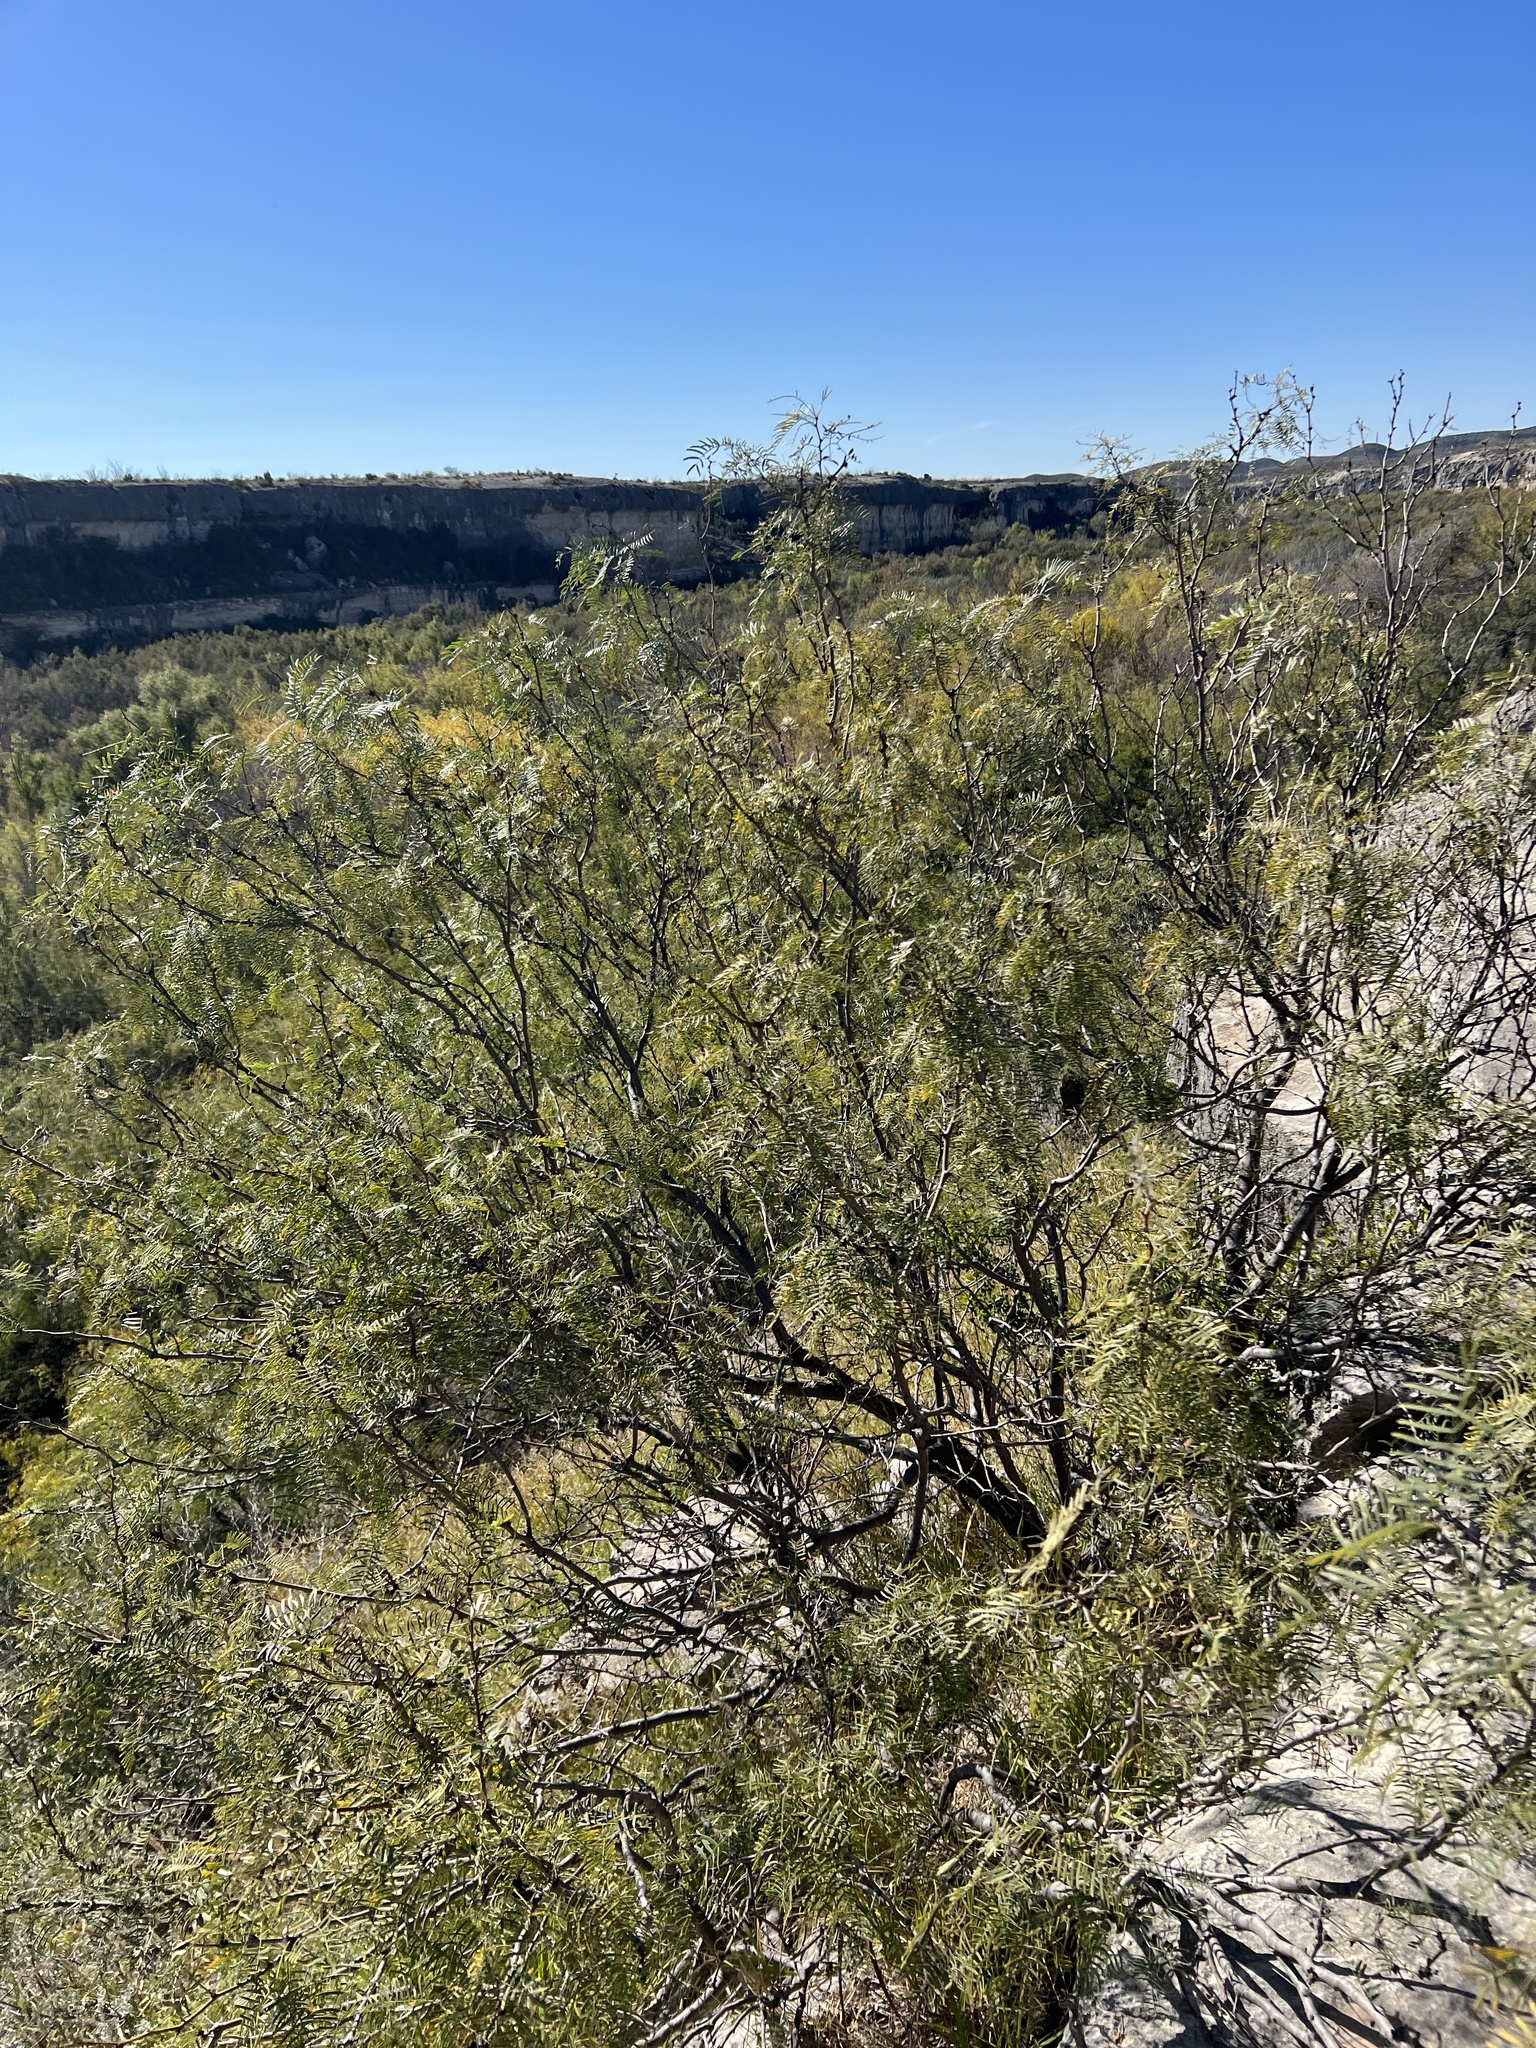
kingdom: Plantae
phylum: Tracheophyta
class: Magnoliopsida
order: Fabales
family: Fabaceae
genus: Prosopis
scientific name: Prosopis glandulosa
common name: Honey mesquite
